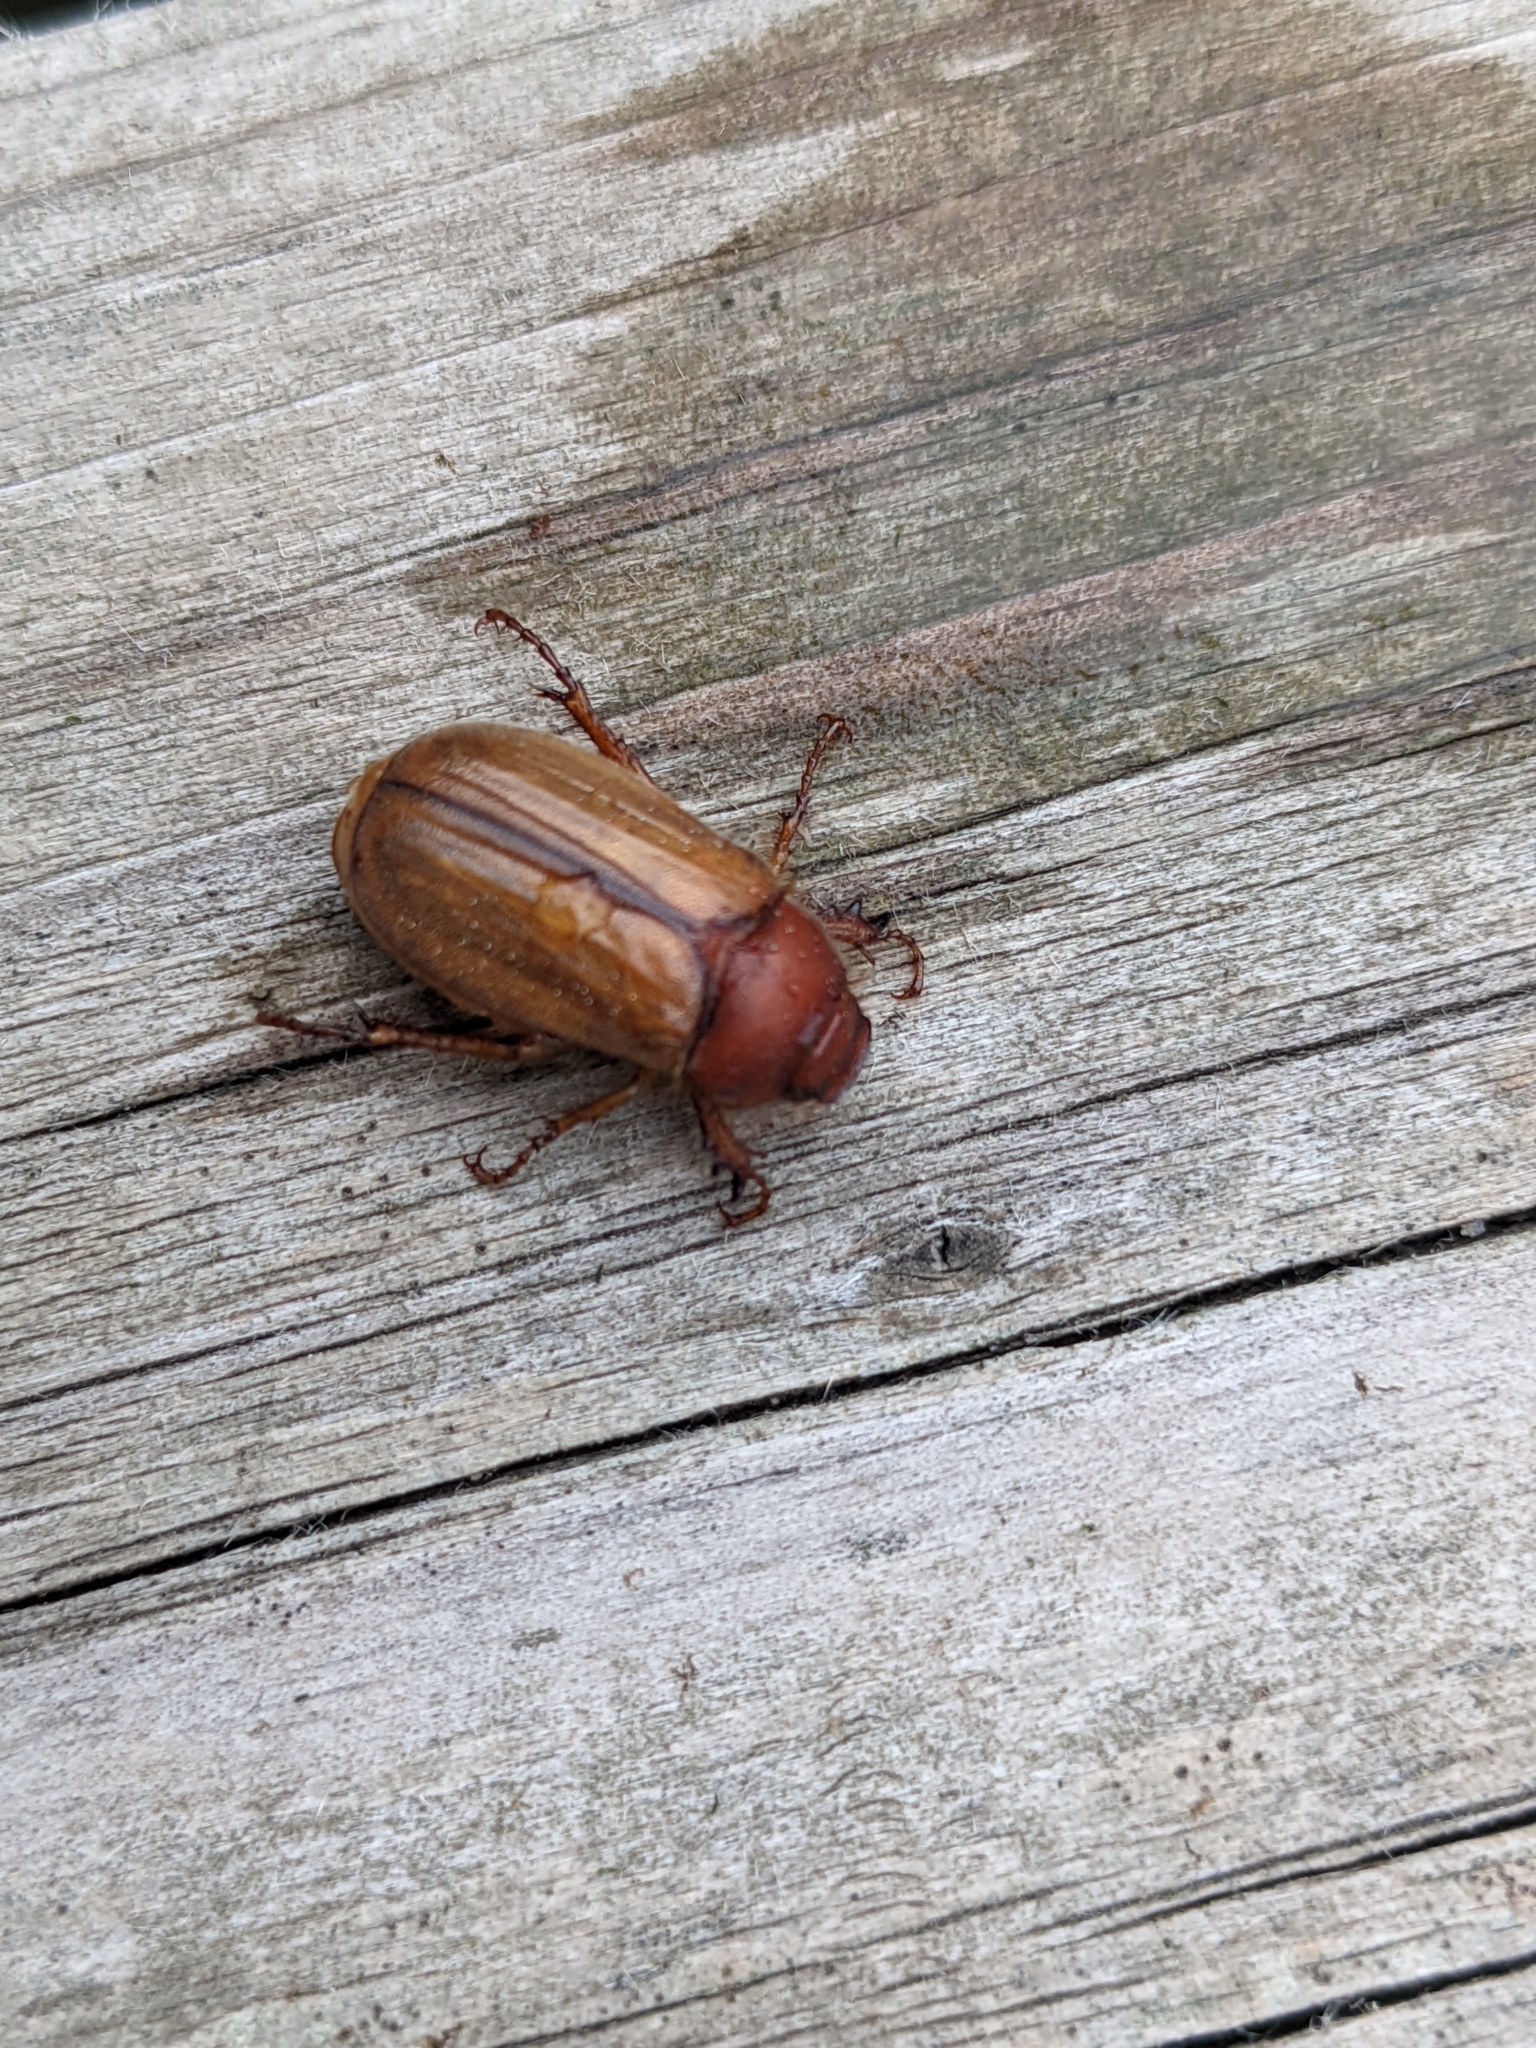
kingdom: Animalia
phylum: Arthropoda
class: Insecta
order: Coleoptera
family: Scarabaeidae
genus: Amphimallon
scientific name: Amphimallon majale
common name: European chafer
